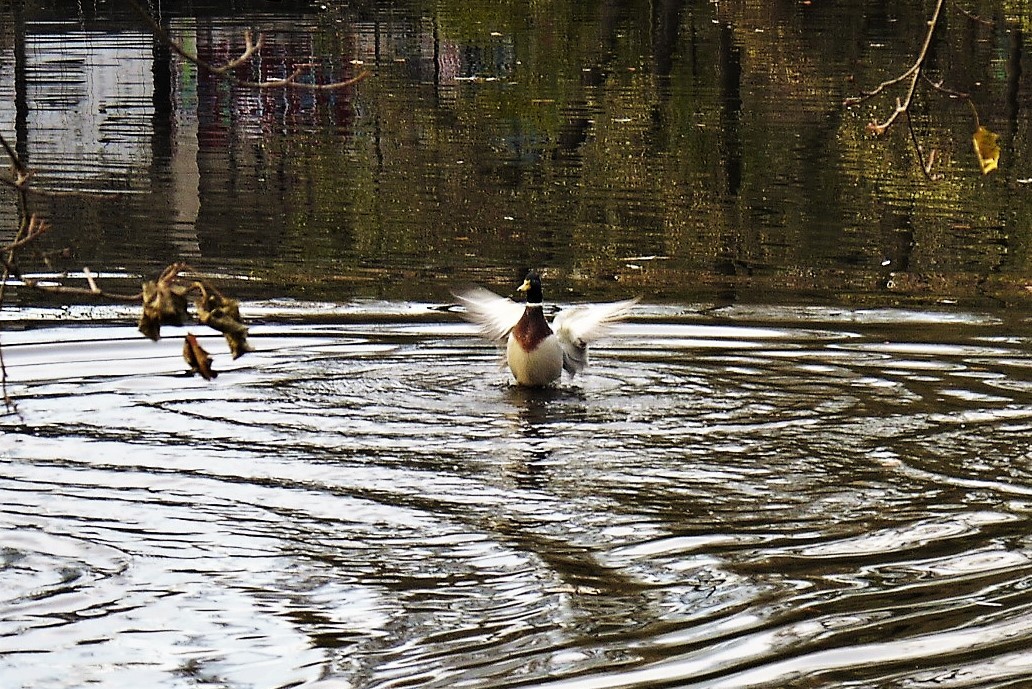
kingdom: Animalia
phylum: Chordata
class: Aves
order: Anseriformes
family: Anatidae
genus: Anas
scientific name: Anas platyrhynchos
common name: Mallard
